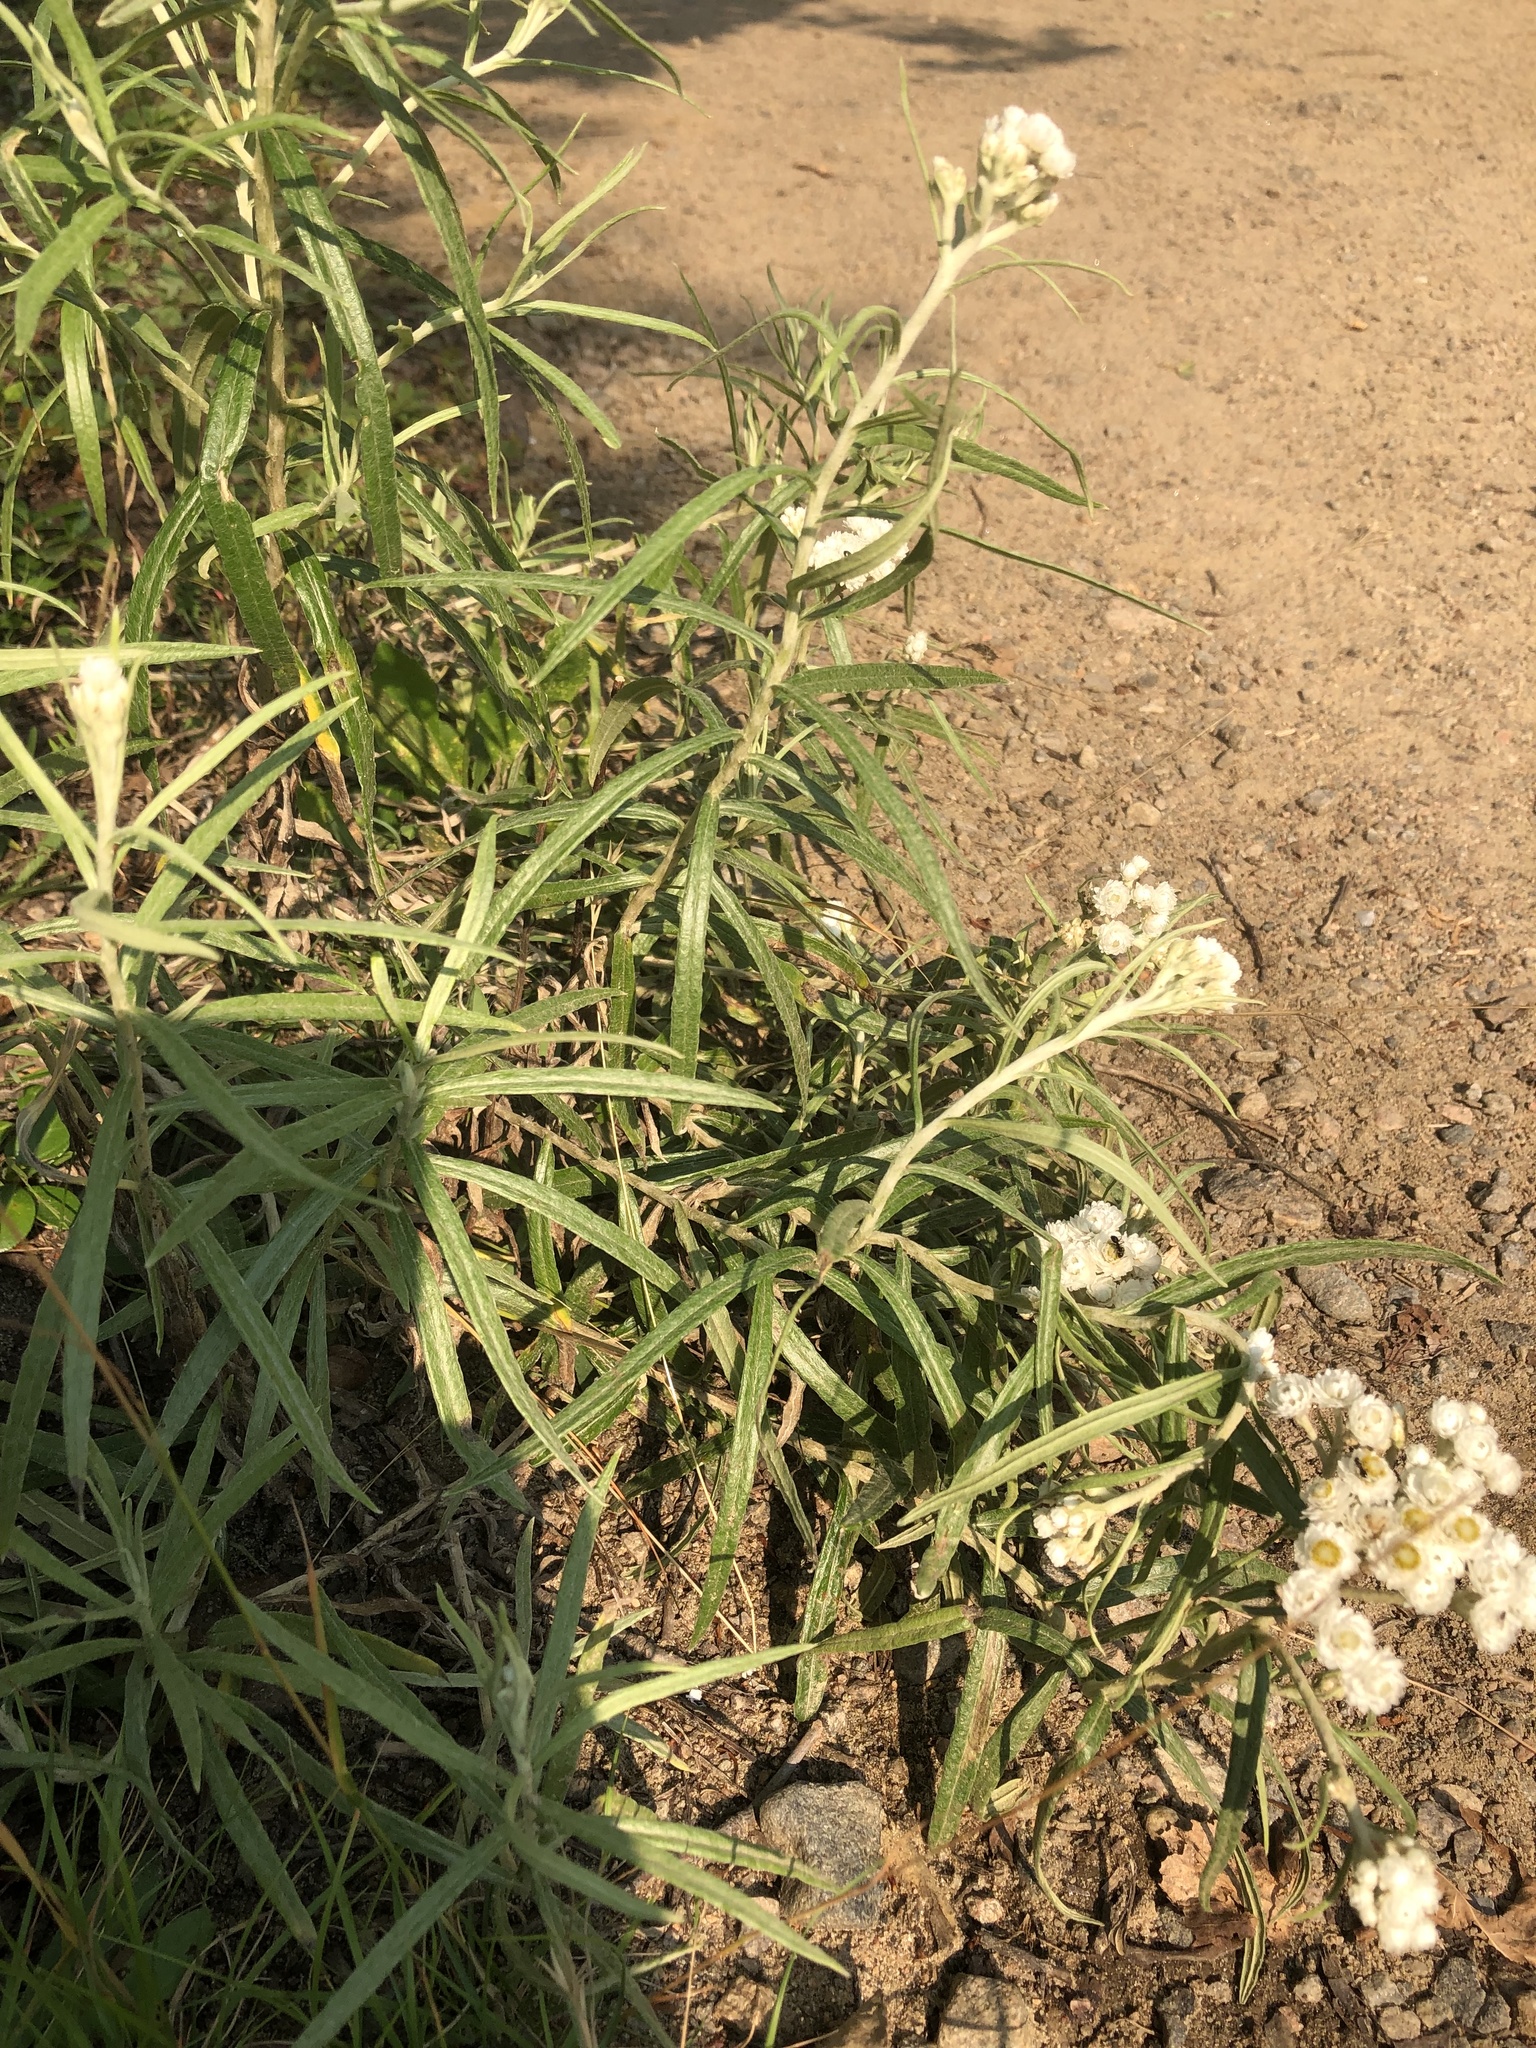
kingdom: Plantae
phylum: Tracheophyta
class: Magnoliopsida
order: Asterales
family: Asteraceae
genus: Anaphalis
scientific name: Anaphalis margaritacea
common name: Pearly everlasting
